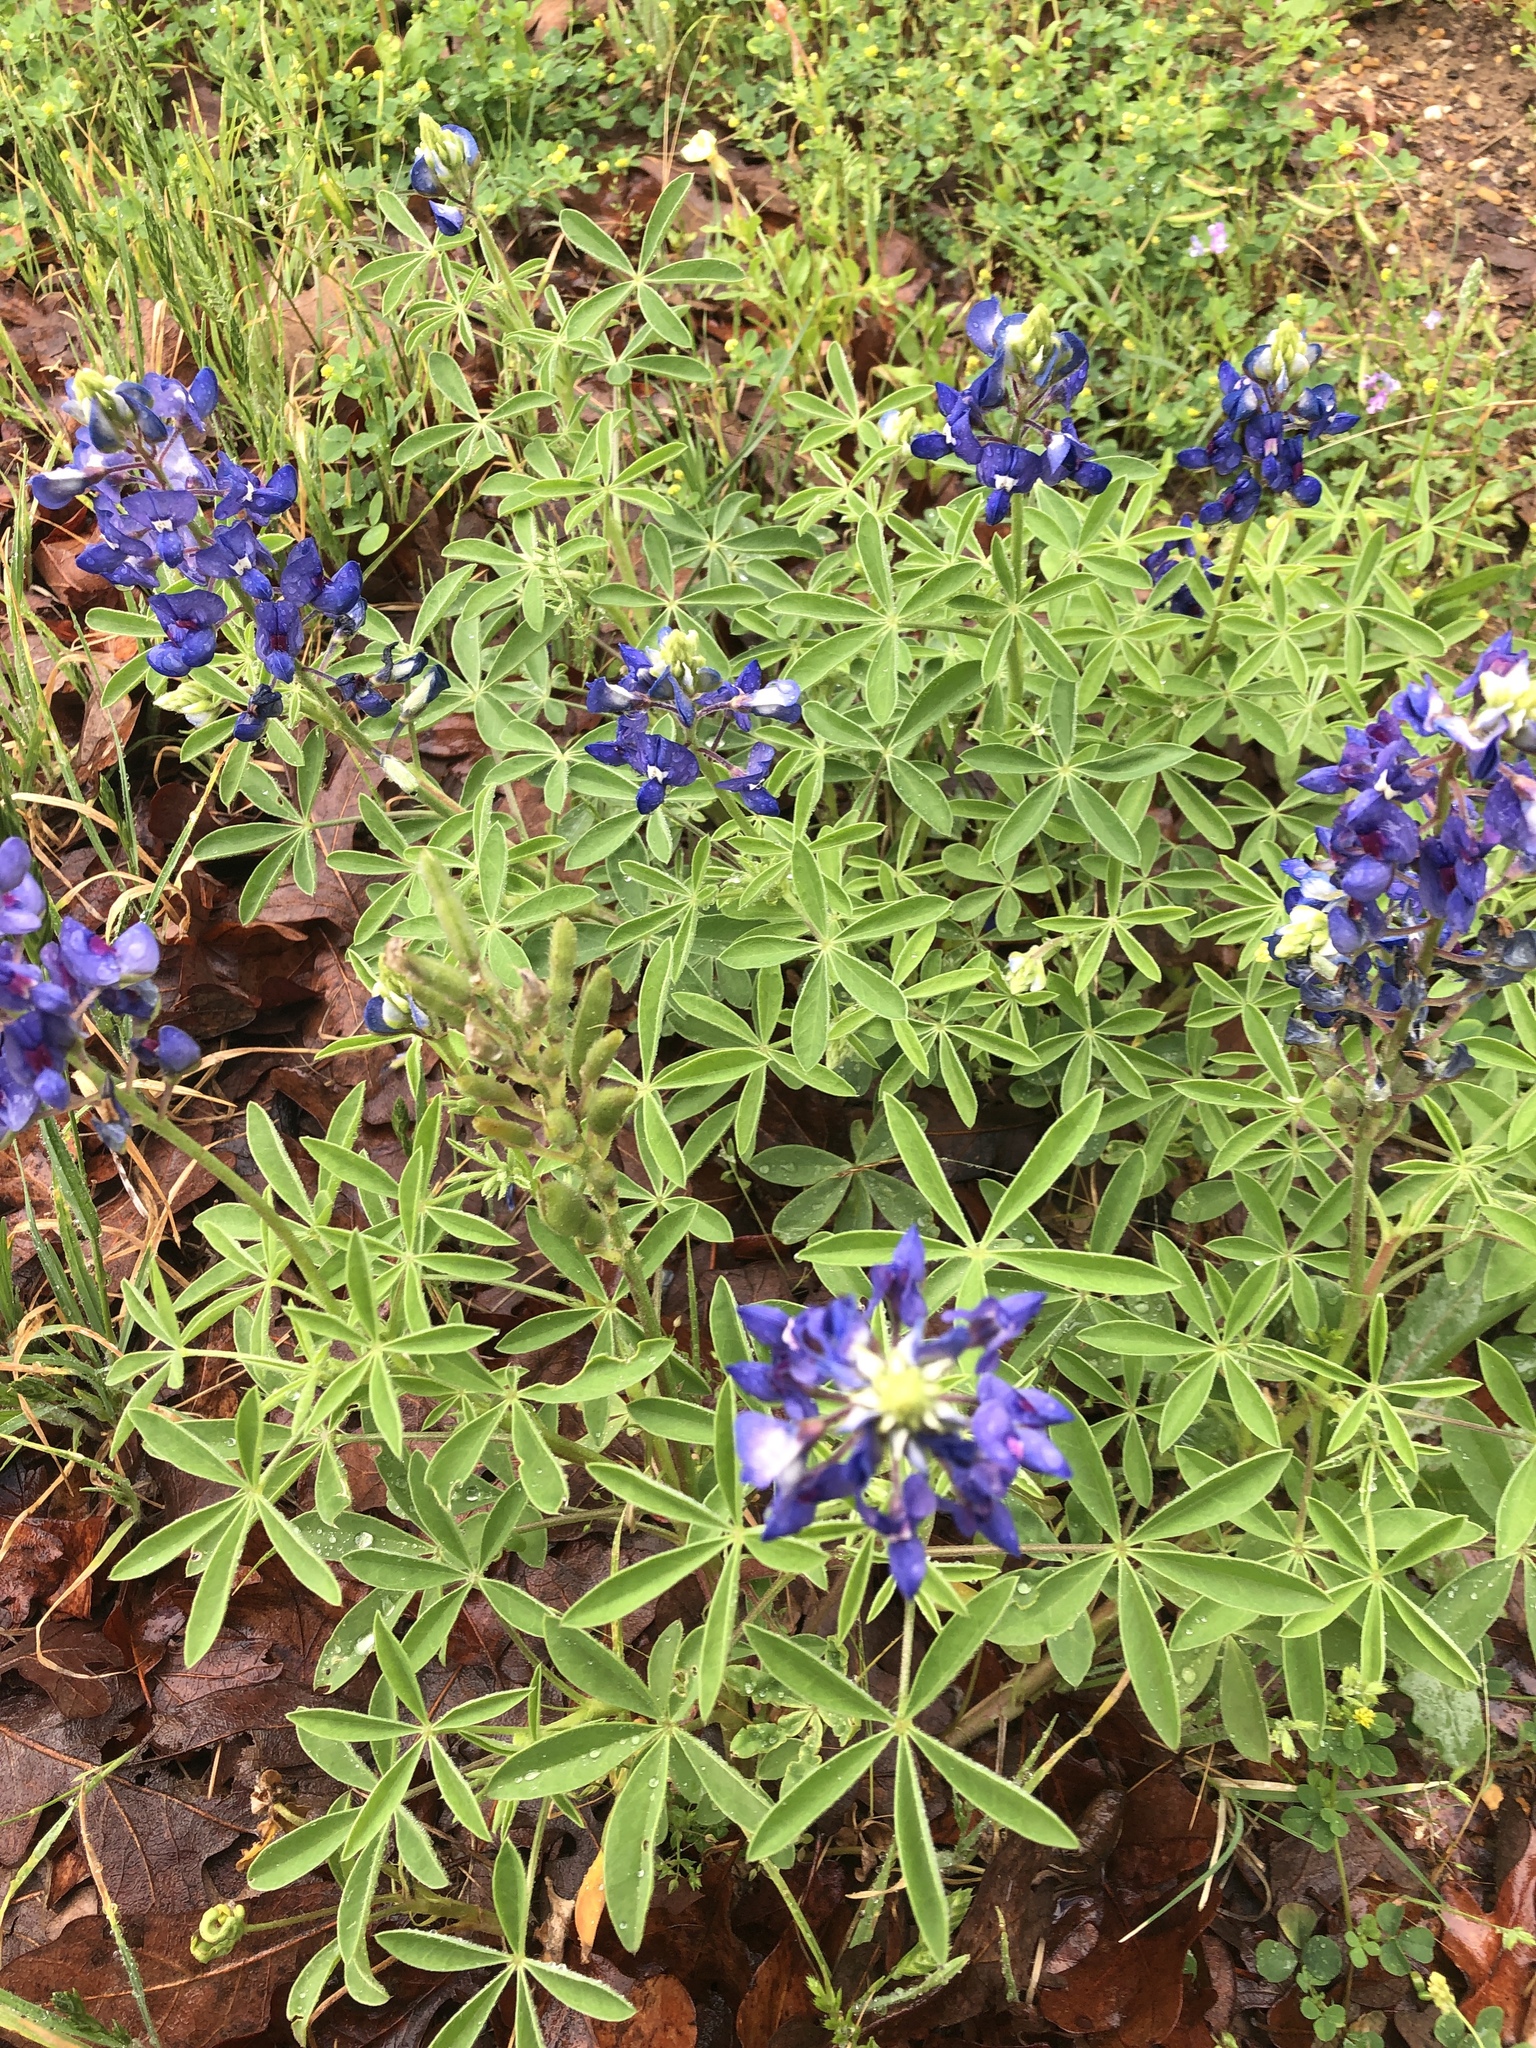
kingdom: Plantae
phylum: Tracheophyta
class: Magnoliopsida
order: Fabales
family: Fabaceae
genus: Lupinus
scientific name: Lupinus texensis
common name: Texas bluebonnet
